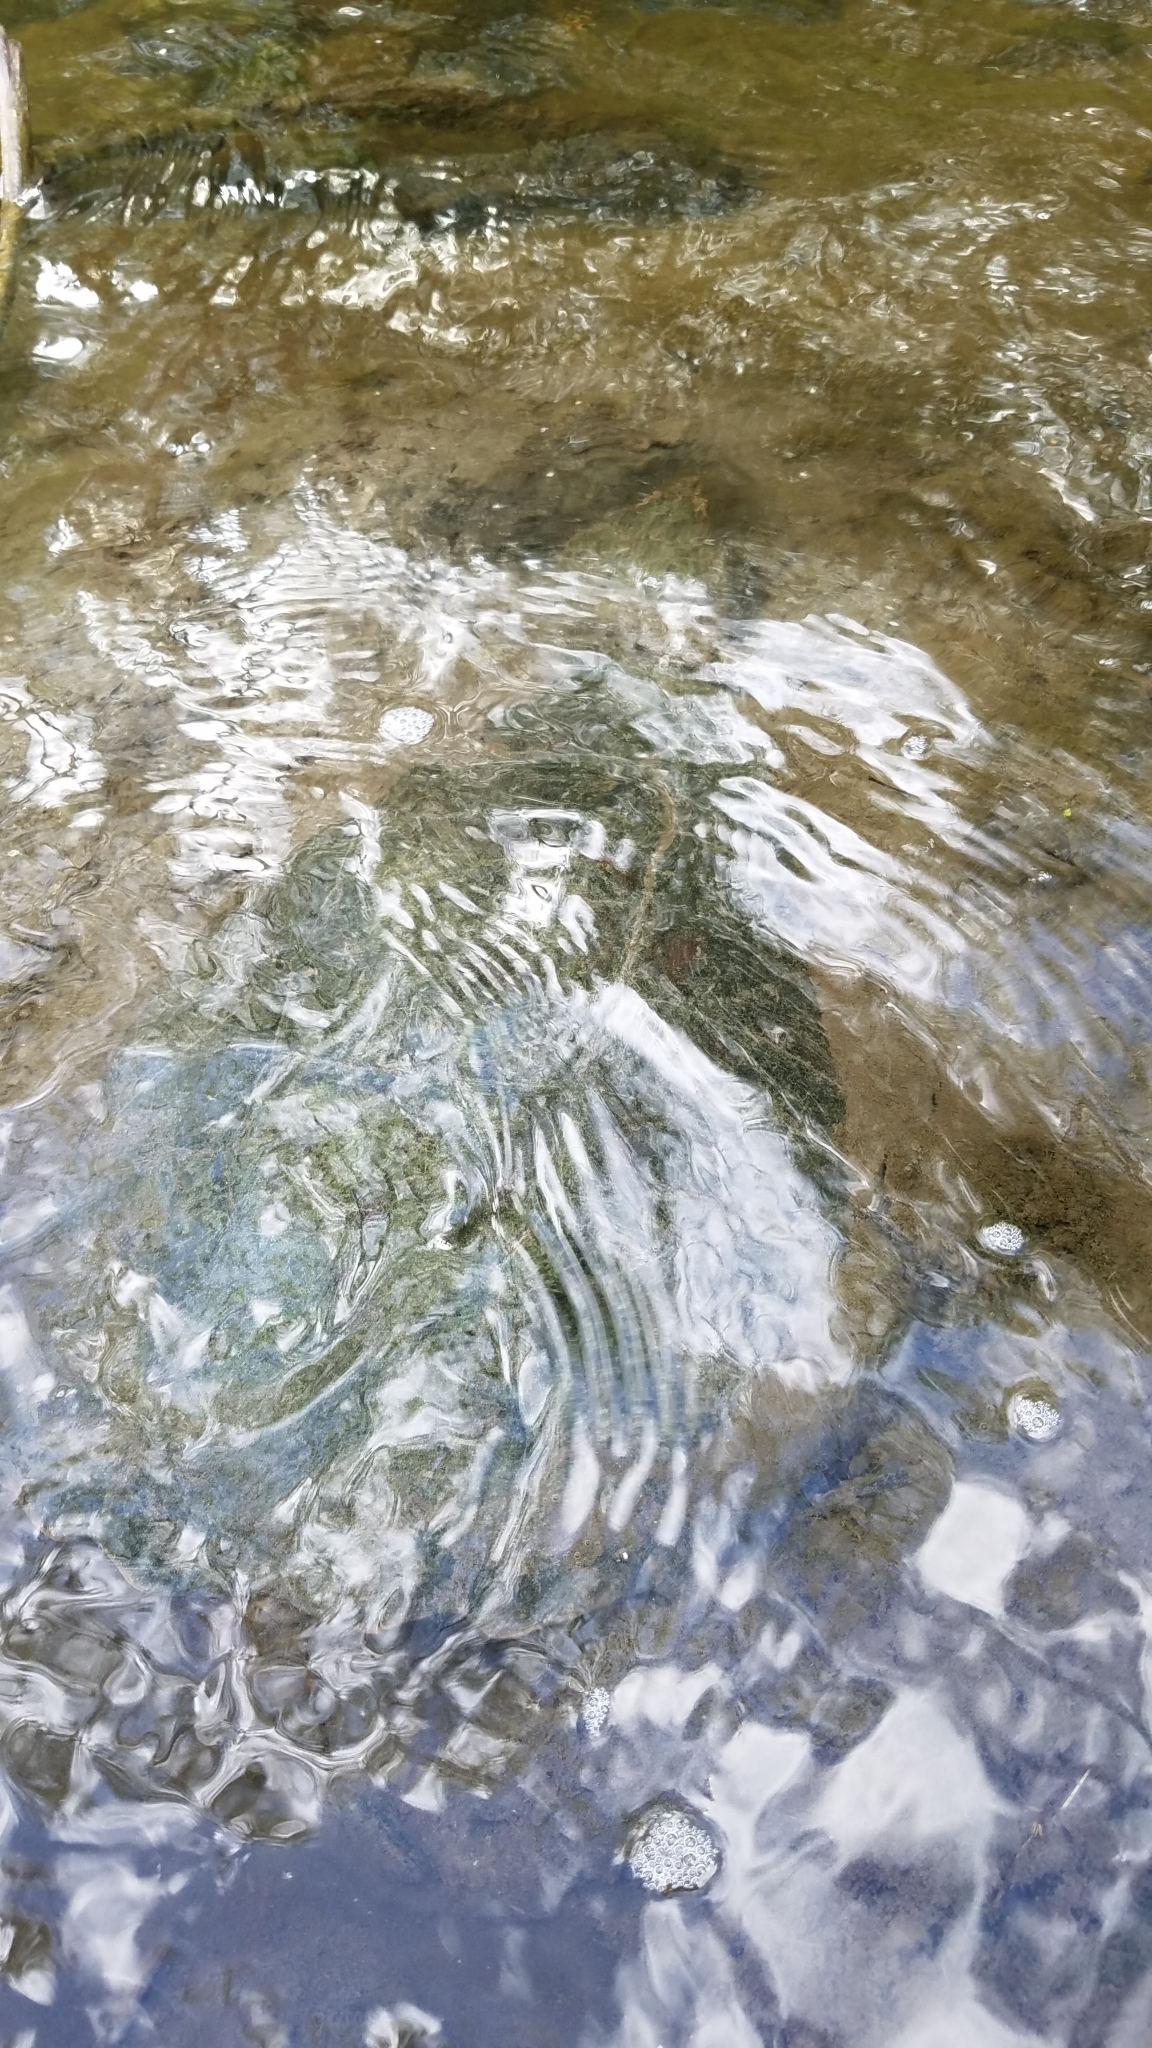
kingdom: Animalia
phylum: Chordata
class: Testudines
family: Chelydridae
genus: Chelydra
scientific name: Chelydra serpentina
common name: Common snapping turtle
